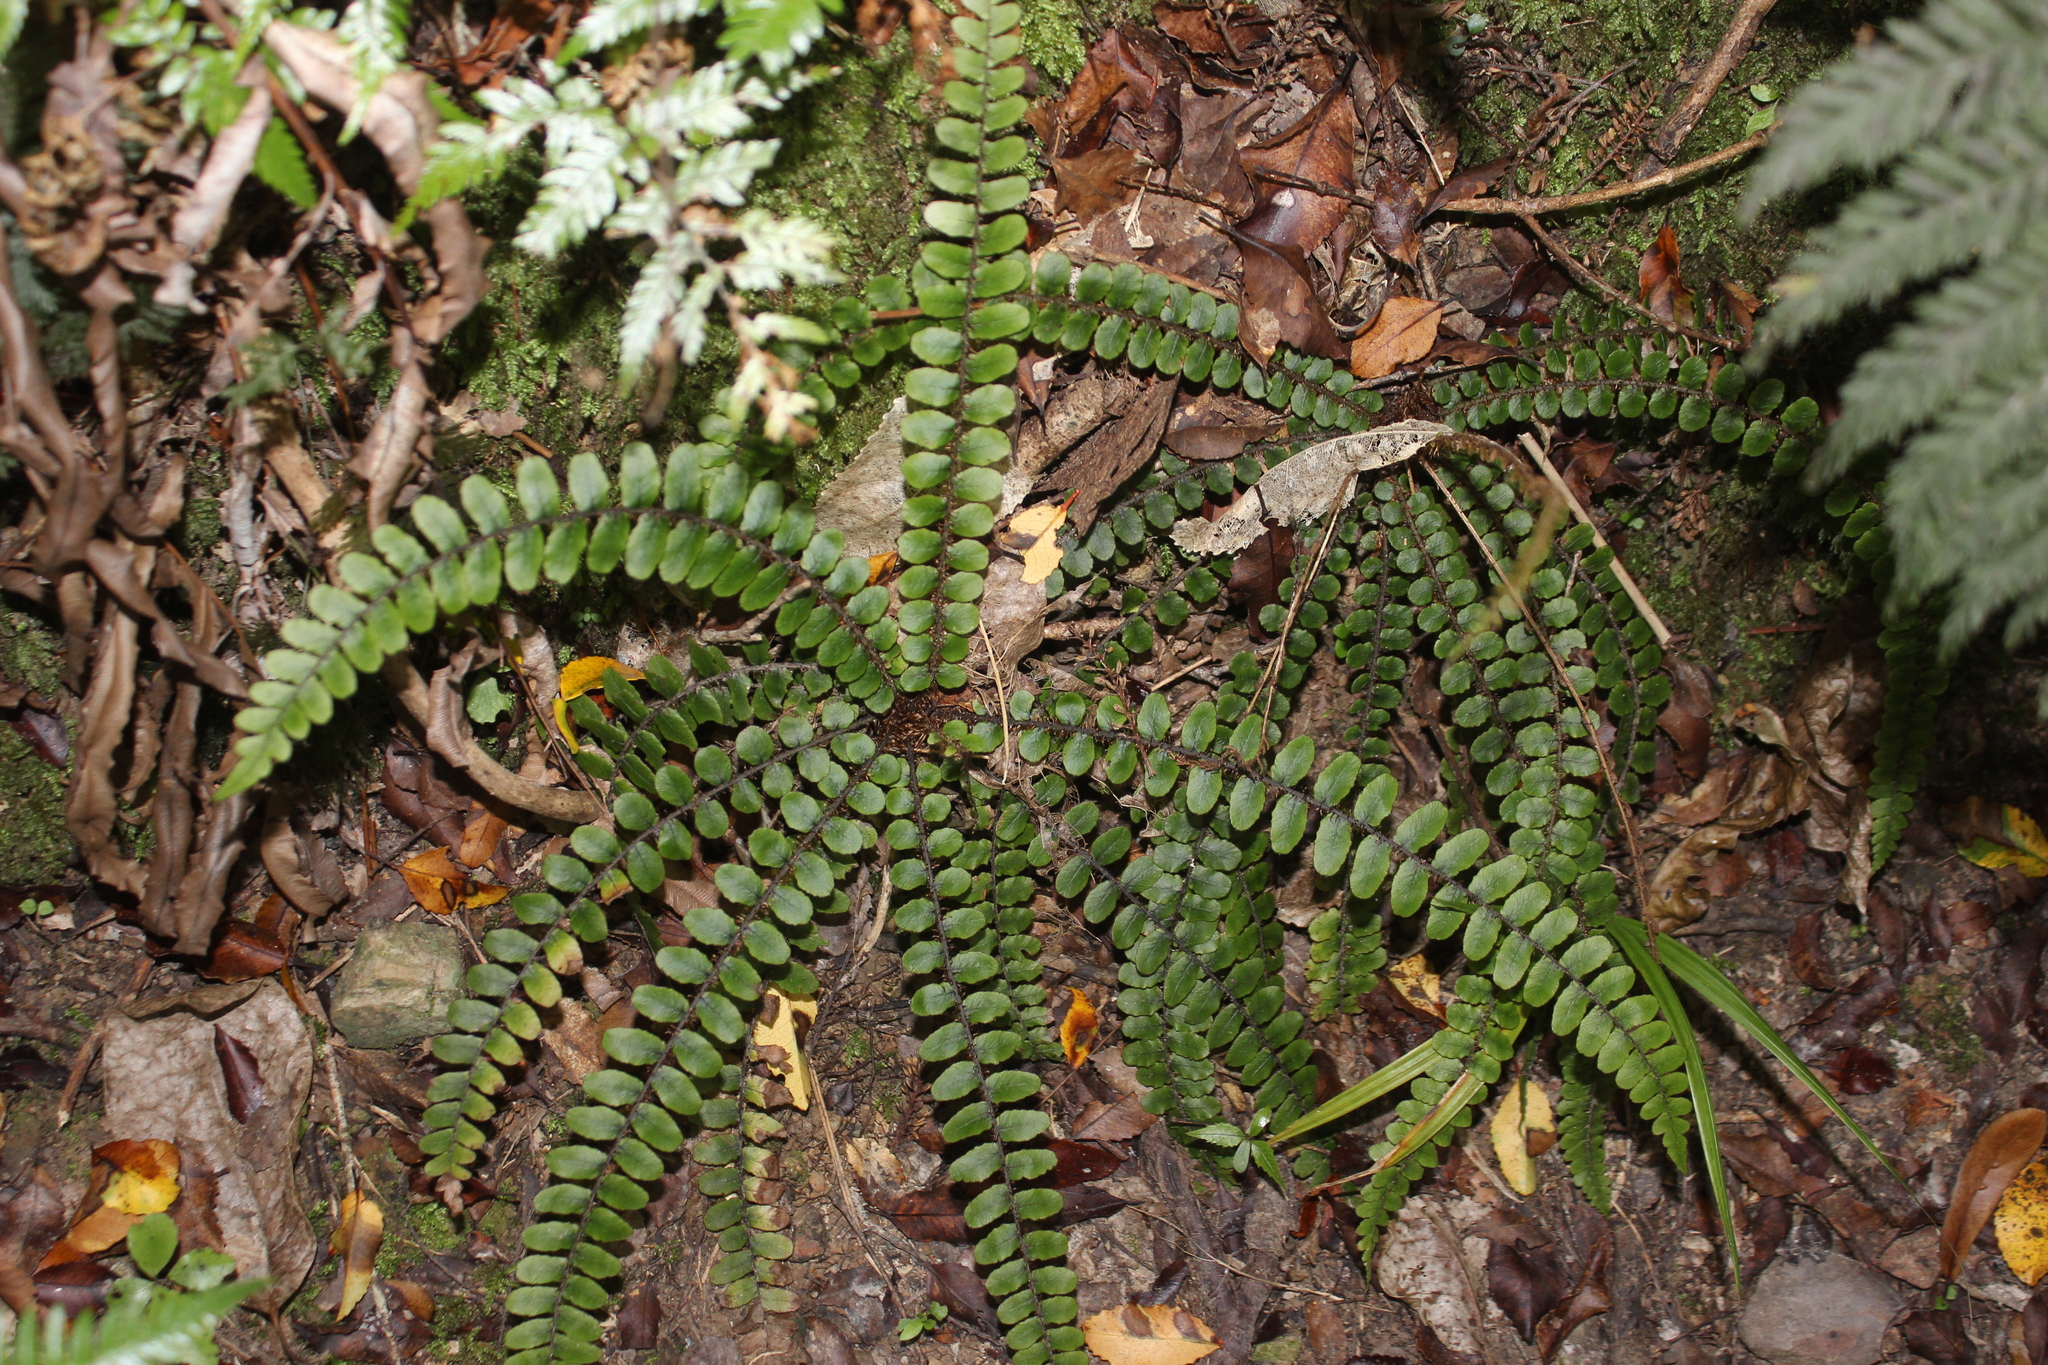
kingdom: Plantae
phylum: Tracheophyta
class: Polypodiopsida
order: Polypodiales
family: Blechnaceae
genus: Cranfillia
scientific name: Cranfillia fluviatilis
